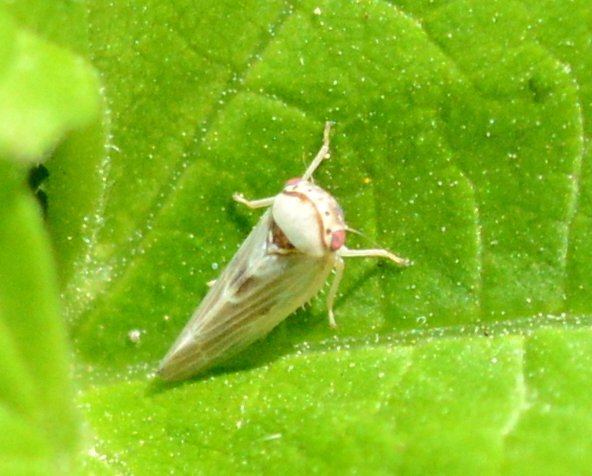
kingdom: Animalia
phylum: Arthropoda
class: Insecta
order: Hemiptera
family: Cicadellidae
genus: Agalliopsis
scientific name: Agalliopsis ancistra
